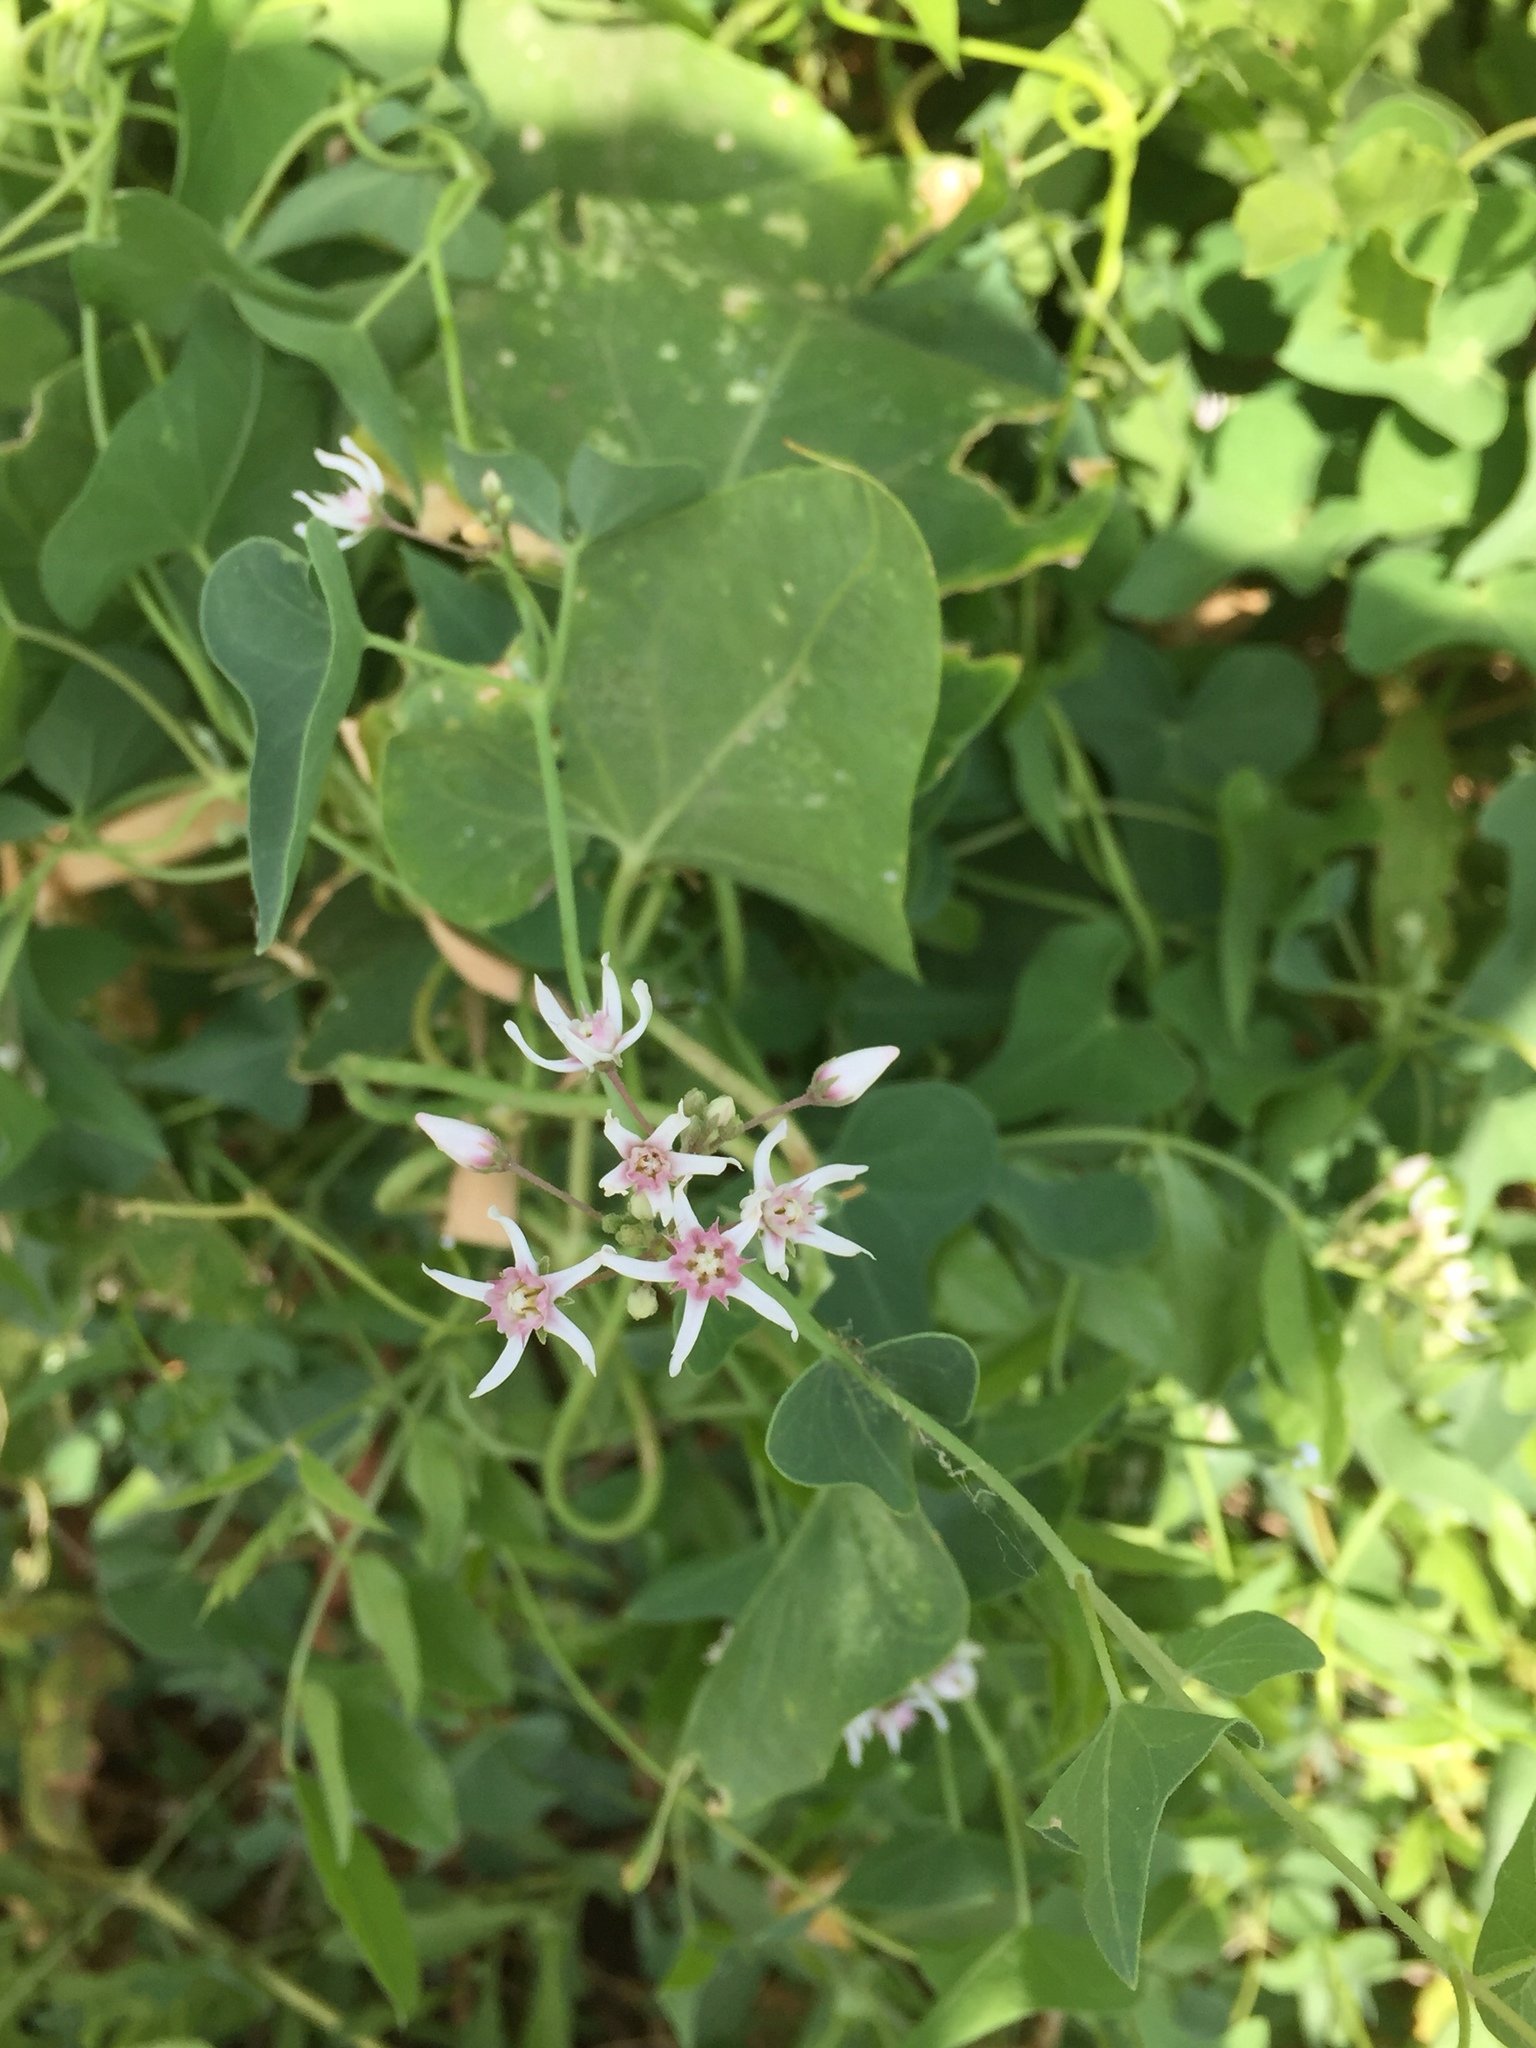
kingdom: Plantae
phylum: Tracheophyta
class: Magnoliopsida
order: Gentianales
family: Apocynaceae
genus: Cynanchum
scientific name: Cynanchum acutum
